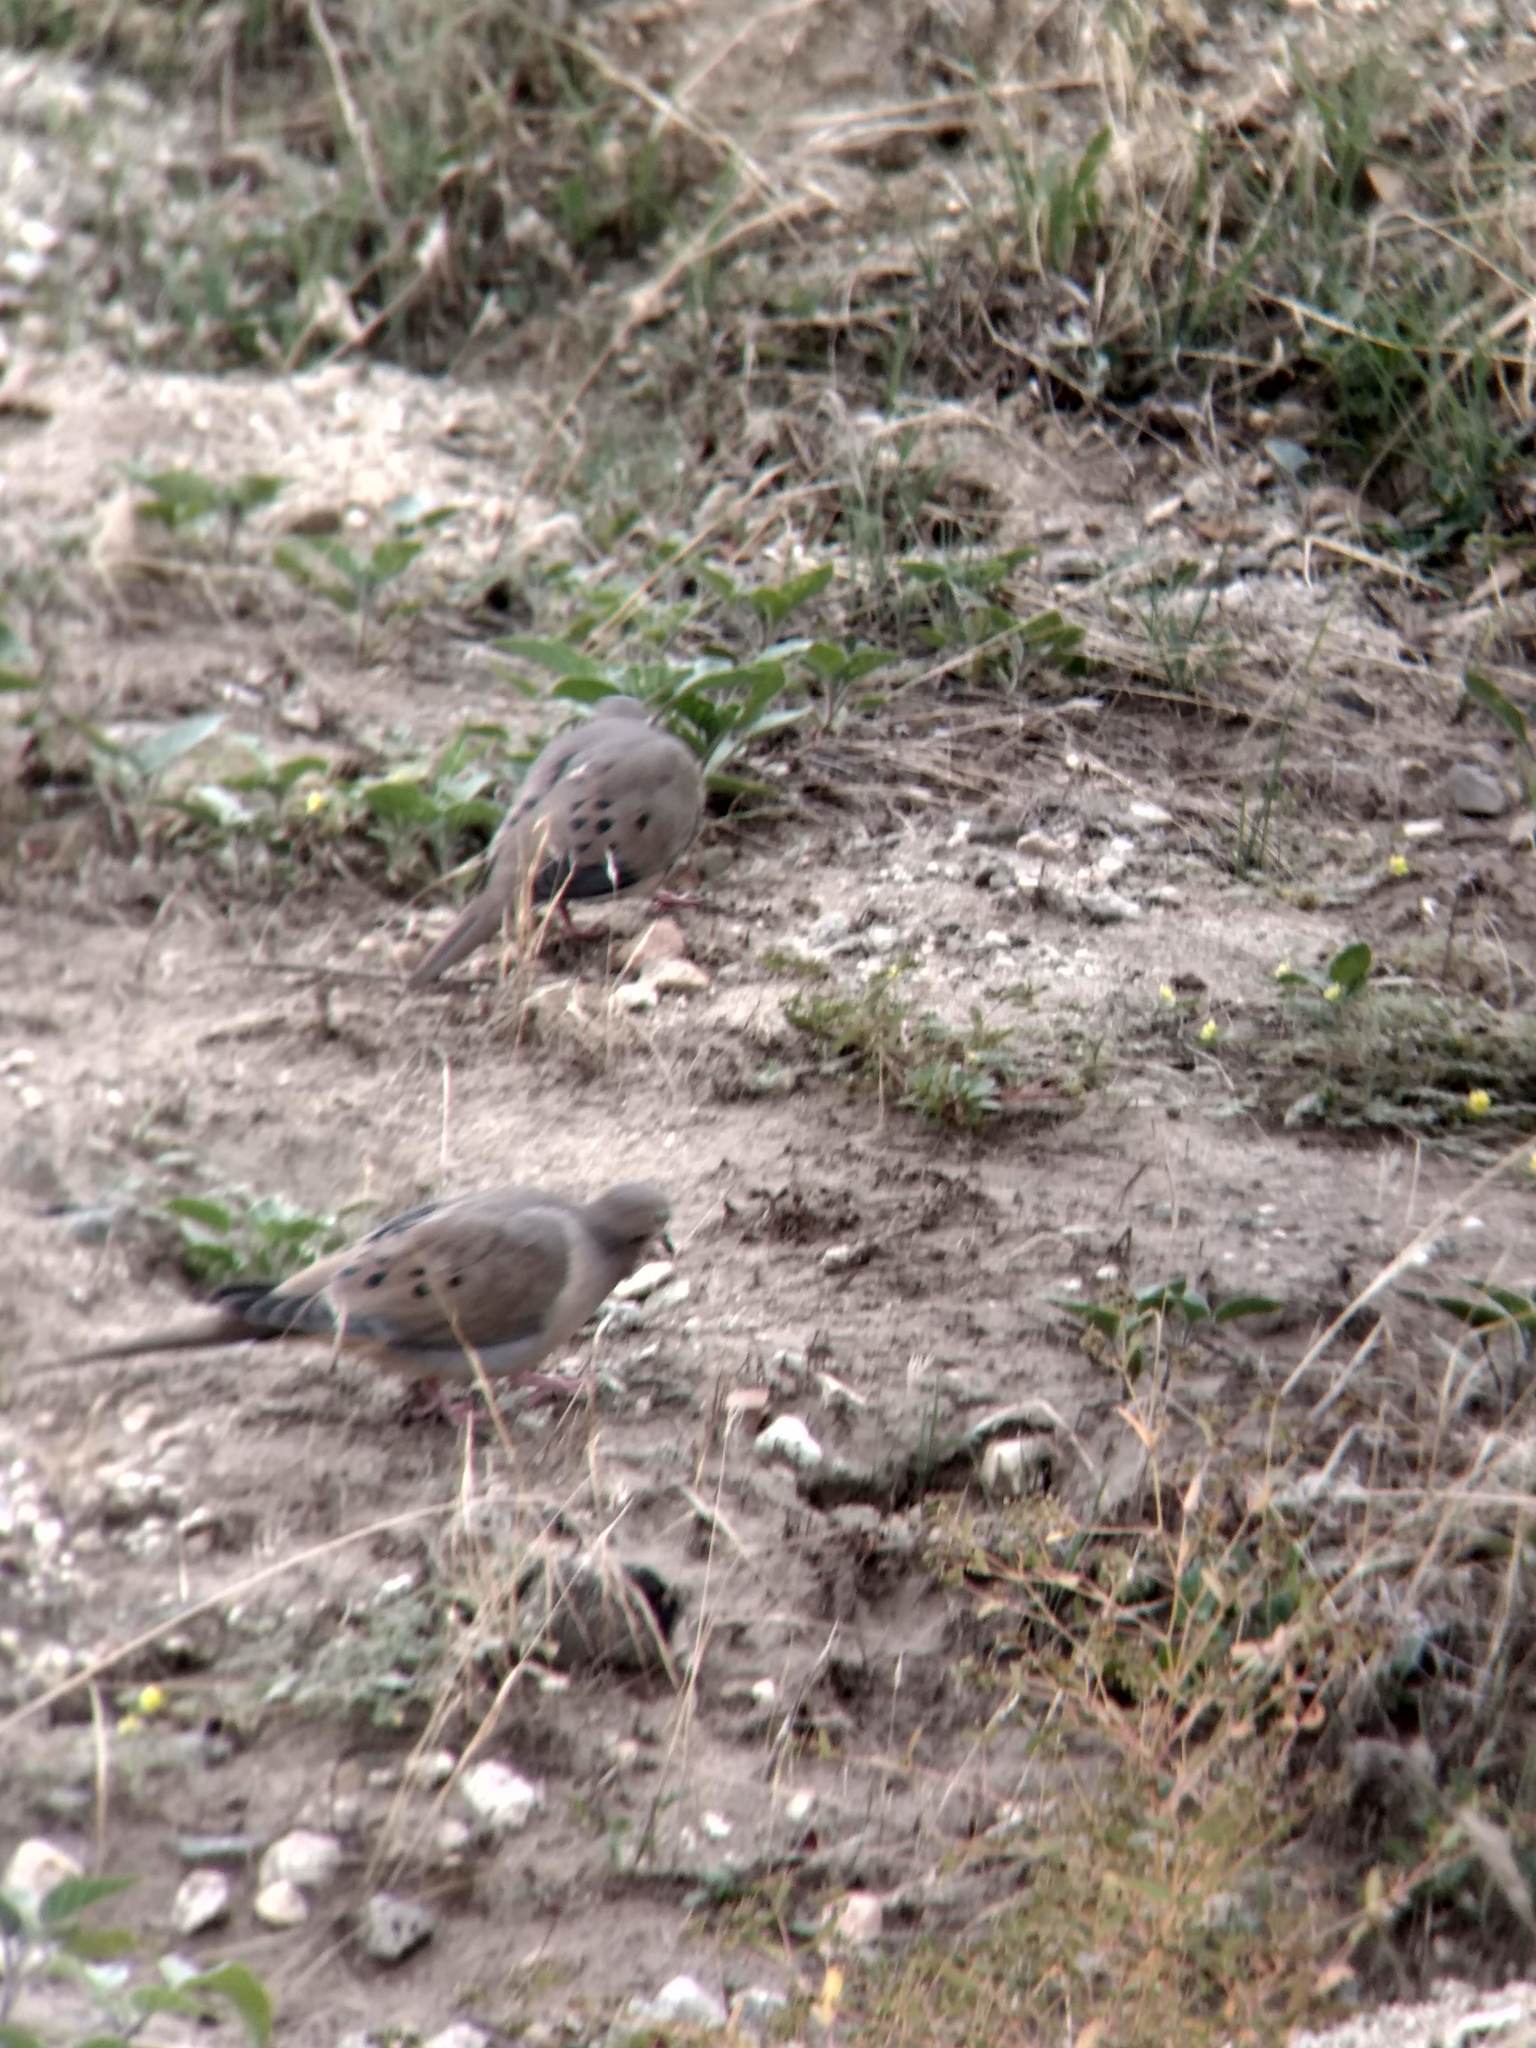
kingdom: Animalia
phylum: Chordata
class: Aves
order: Columbiformes
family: Columbidae
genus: Zenaida
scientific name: Zenaida macroura
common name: Mourning dove
